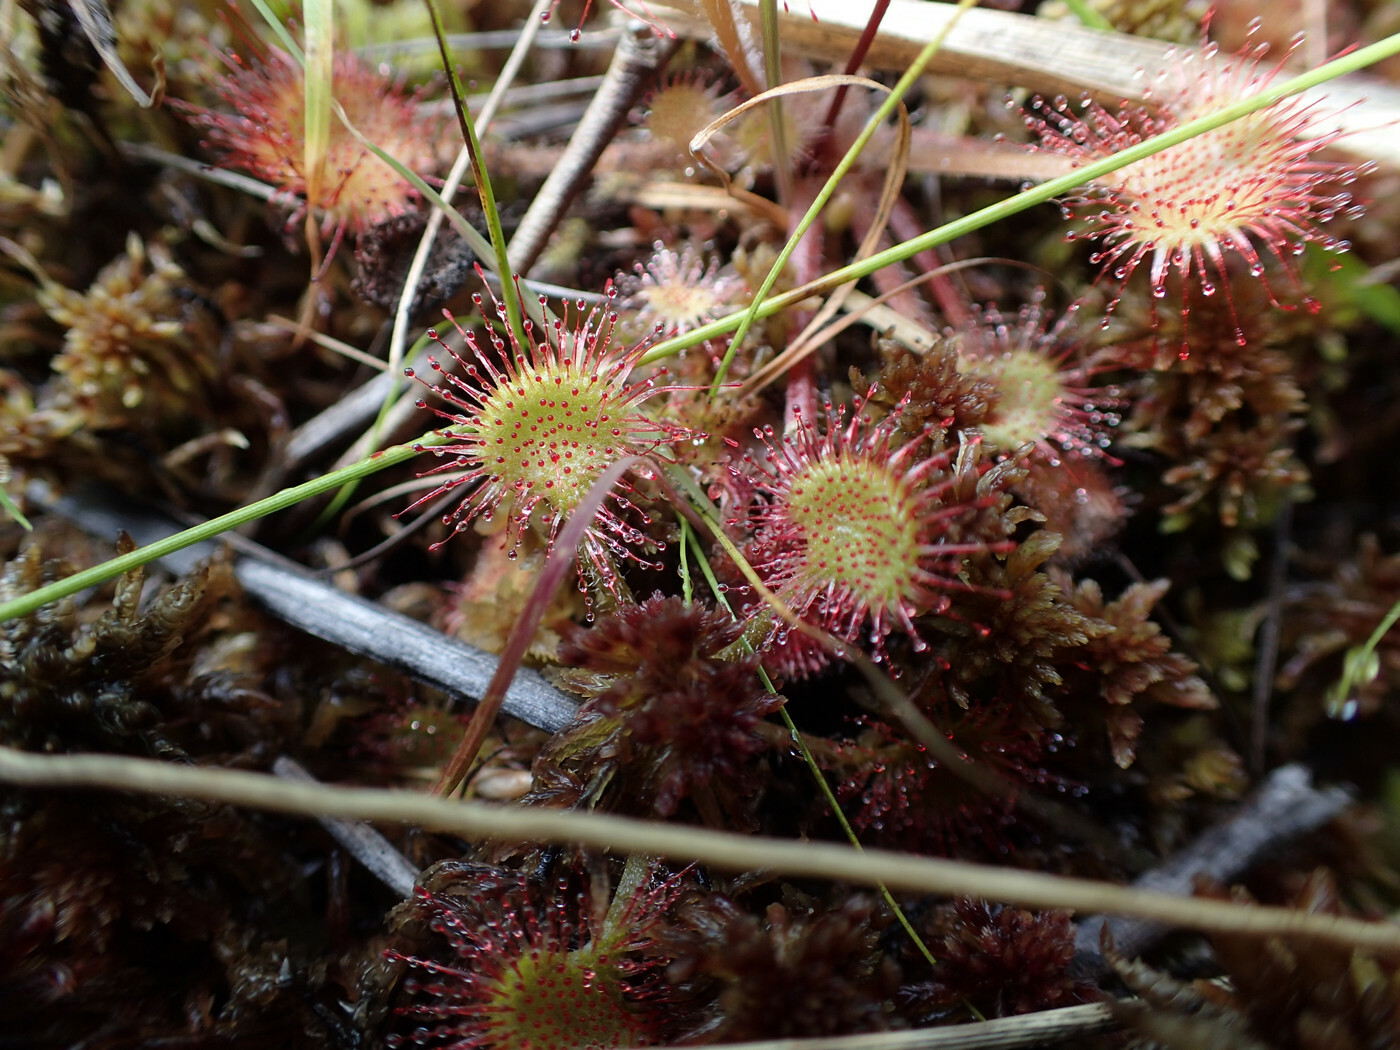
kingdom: Plantae
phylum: Tracheophyta
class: Magnoliopsida
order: Caryophyllales
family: Droseraceae
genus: Drosera
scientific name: Drosera rotundifolia
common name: Round-leaved sundew
